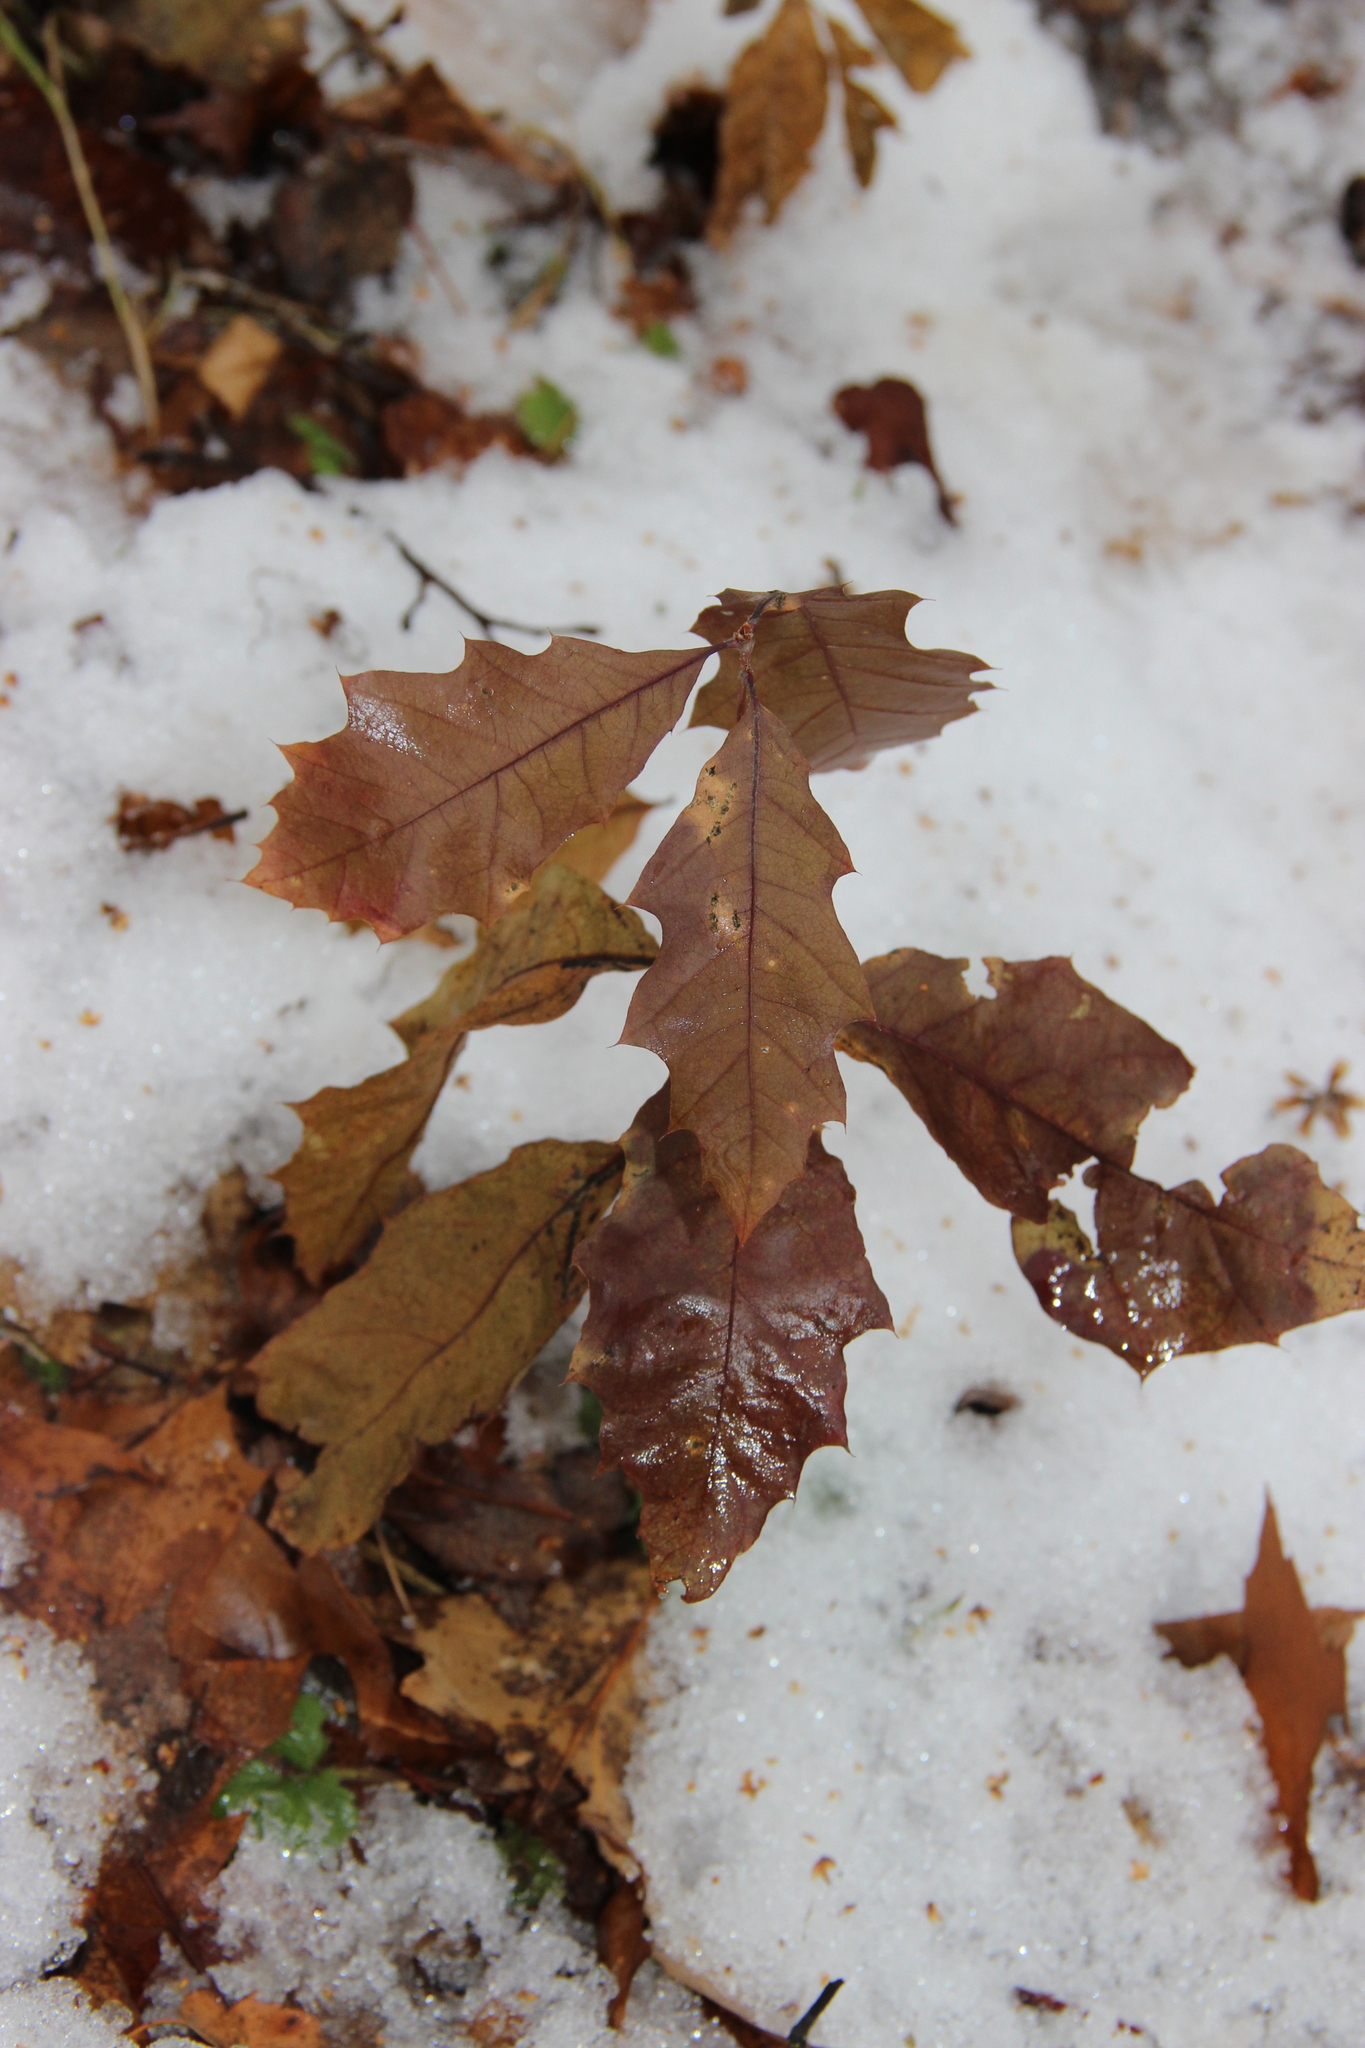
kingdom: Plantae
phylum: Tracheophyta
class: Magnoliopsida
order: Fagales
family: Fagaceae
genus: Quercus
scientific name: Quercus rubra
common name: Red oak
